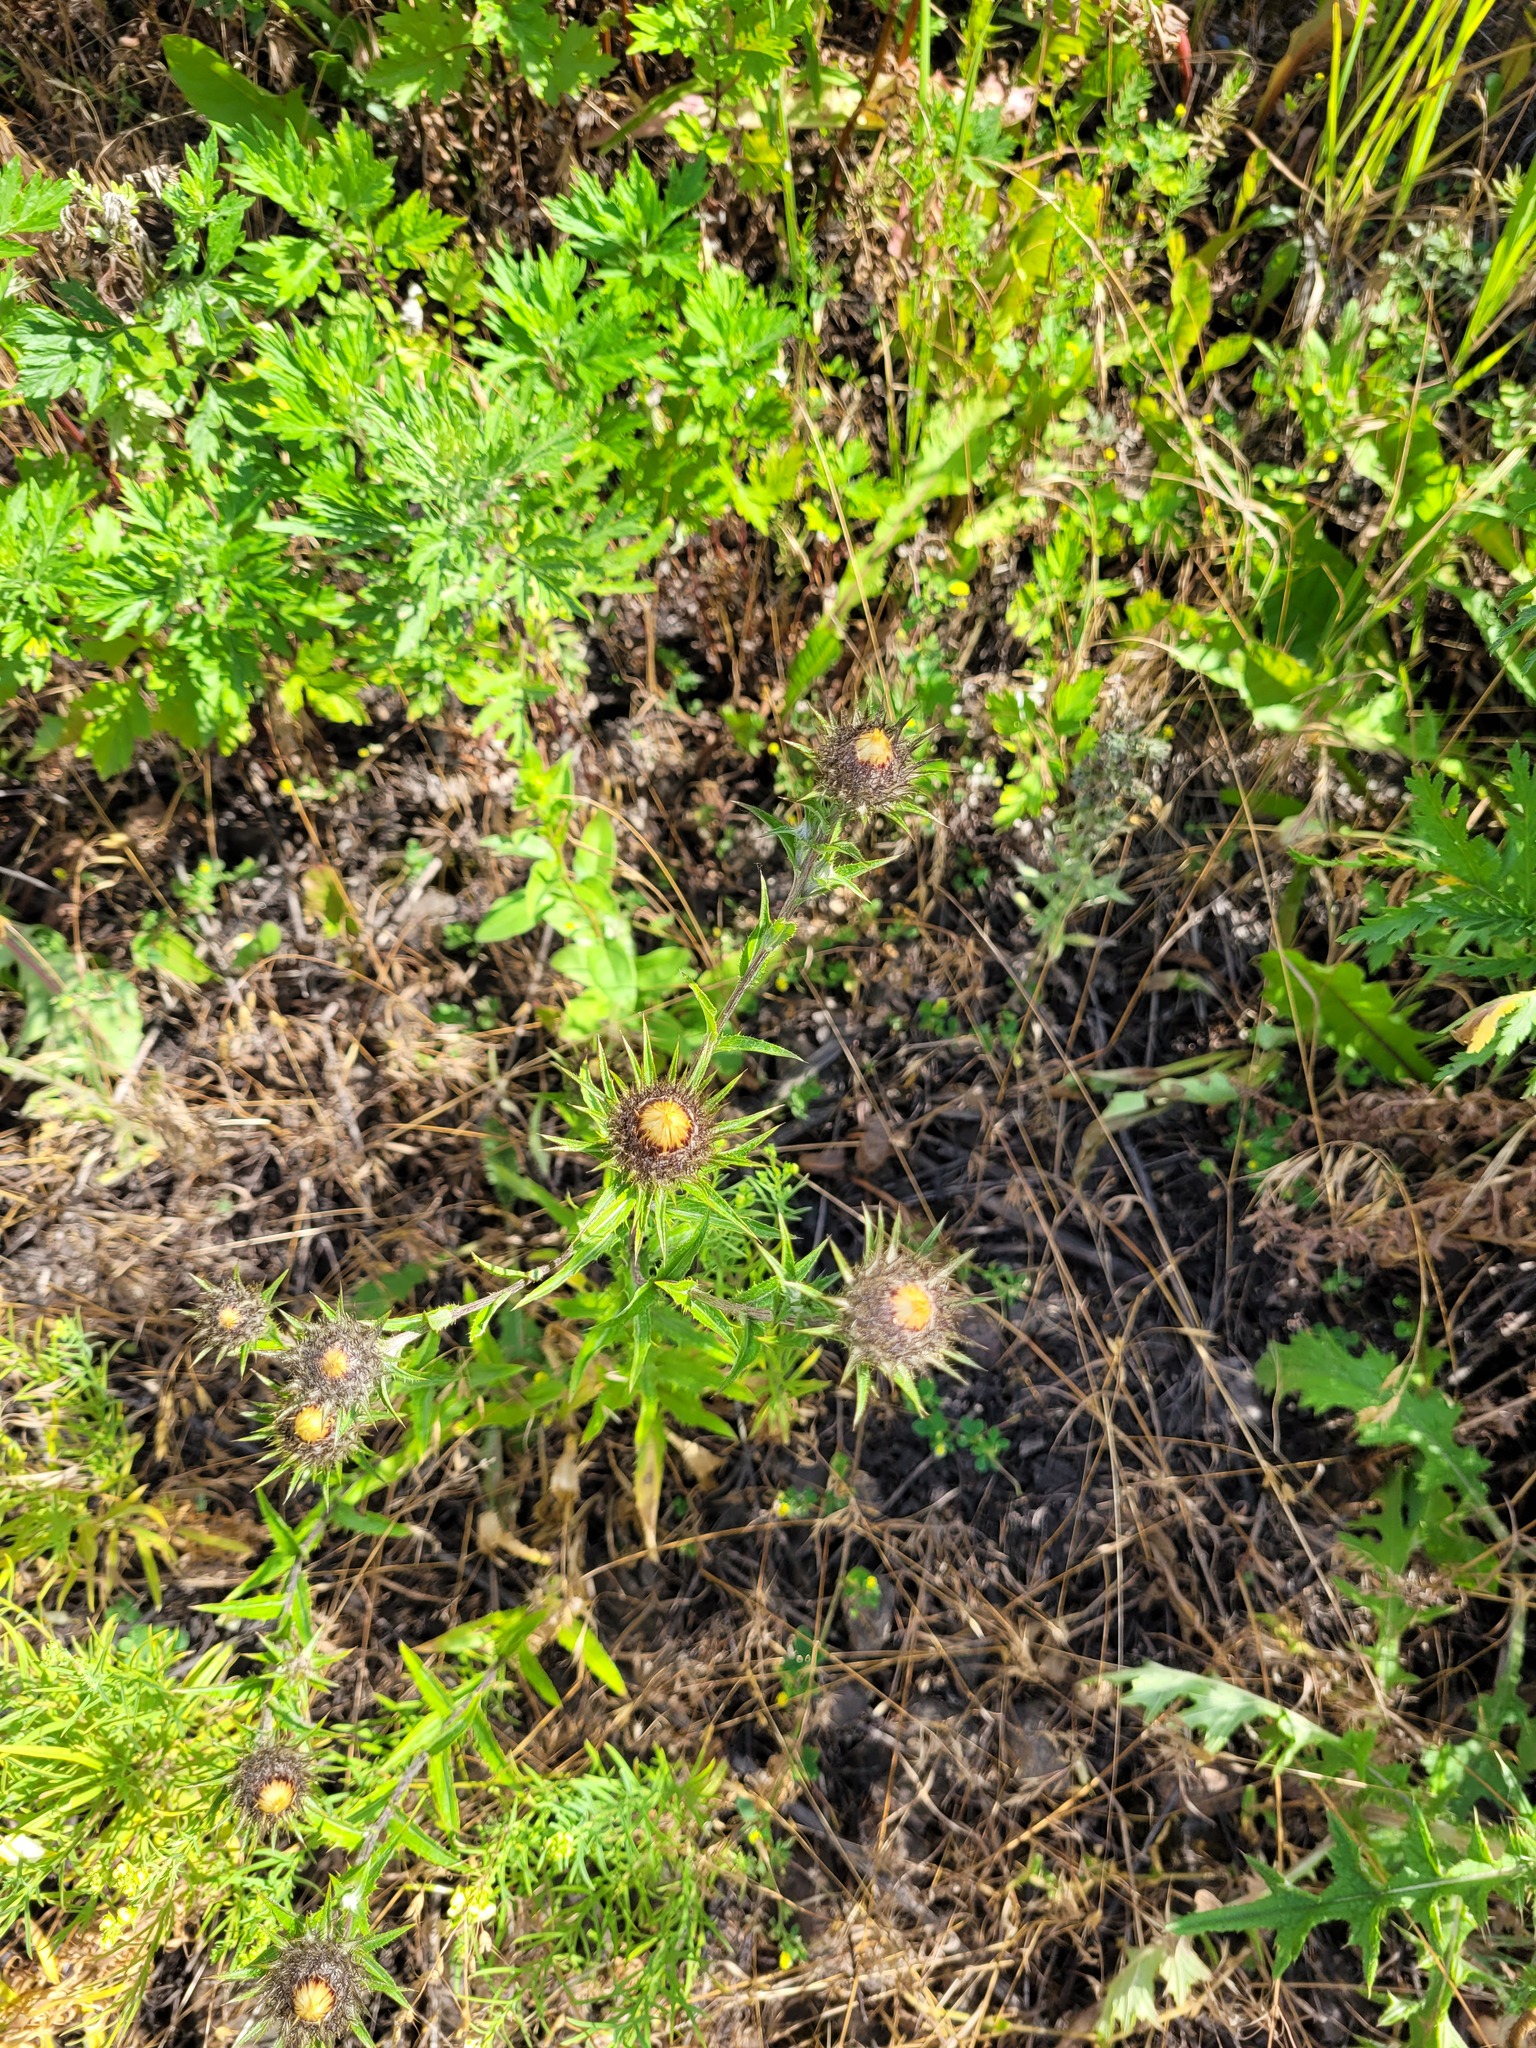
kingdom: Plantae
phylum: Tracheophyta
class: Magnoliopsida
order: Asterales
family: Asteraceae
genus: Carlina
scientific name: Carlina biebersteinii
